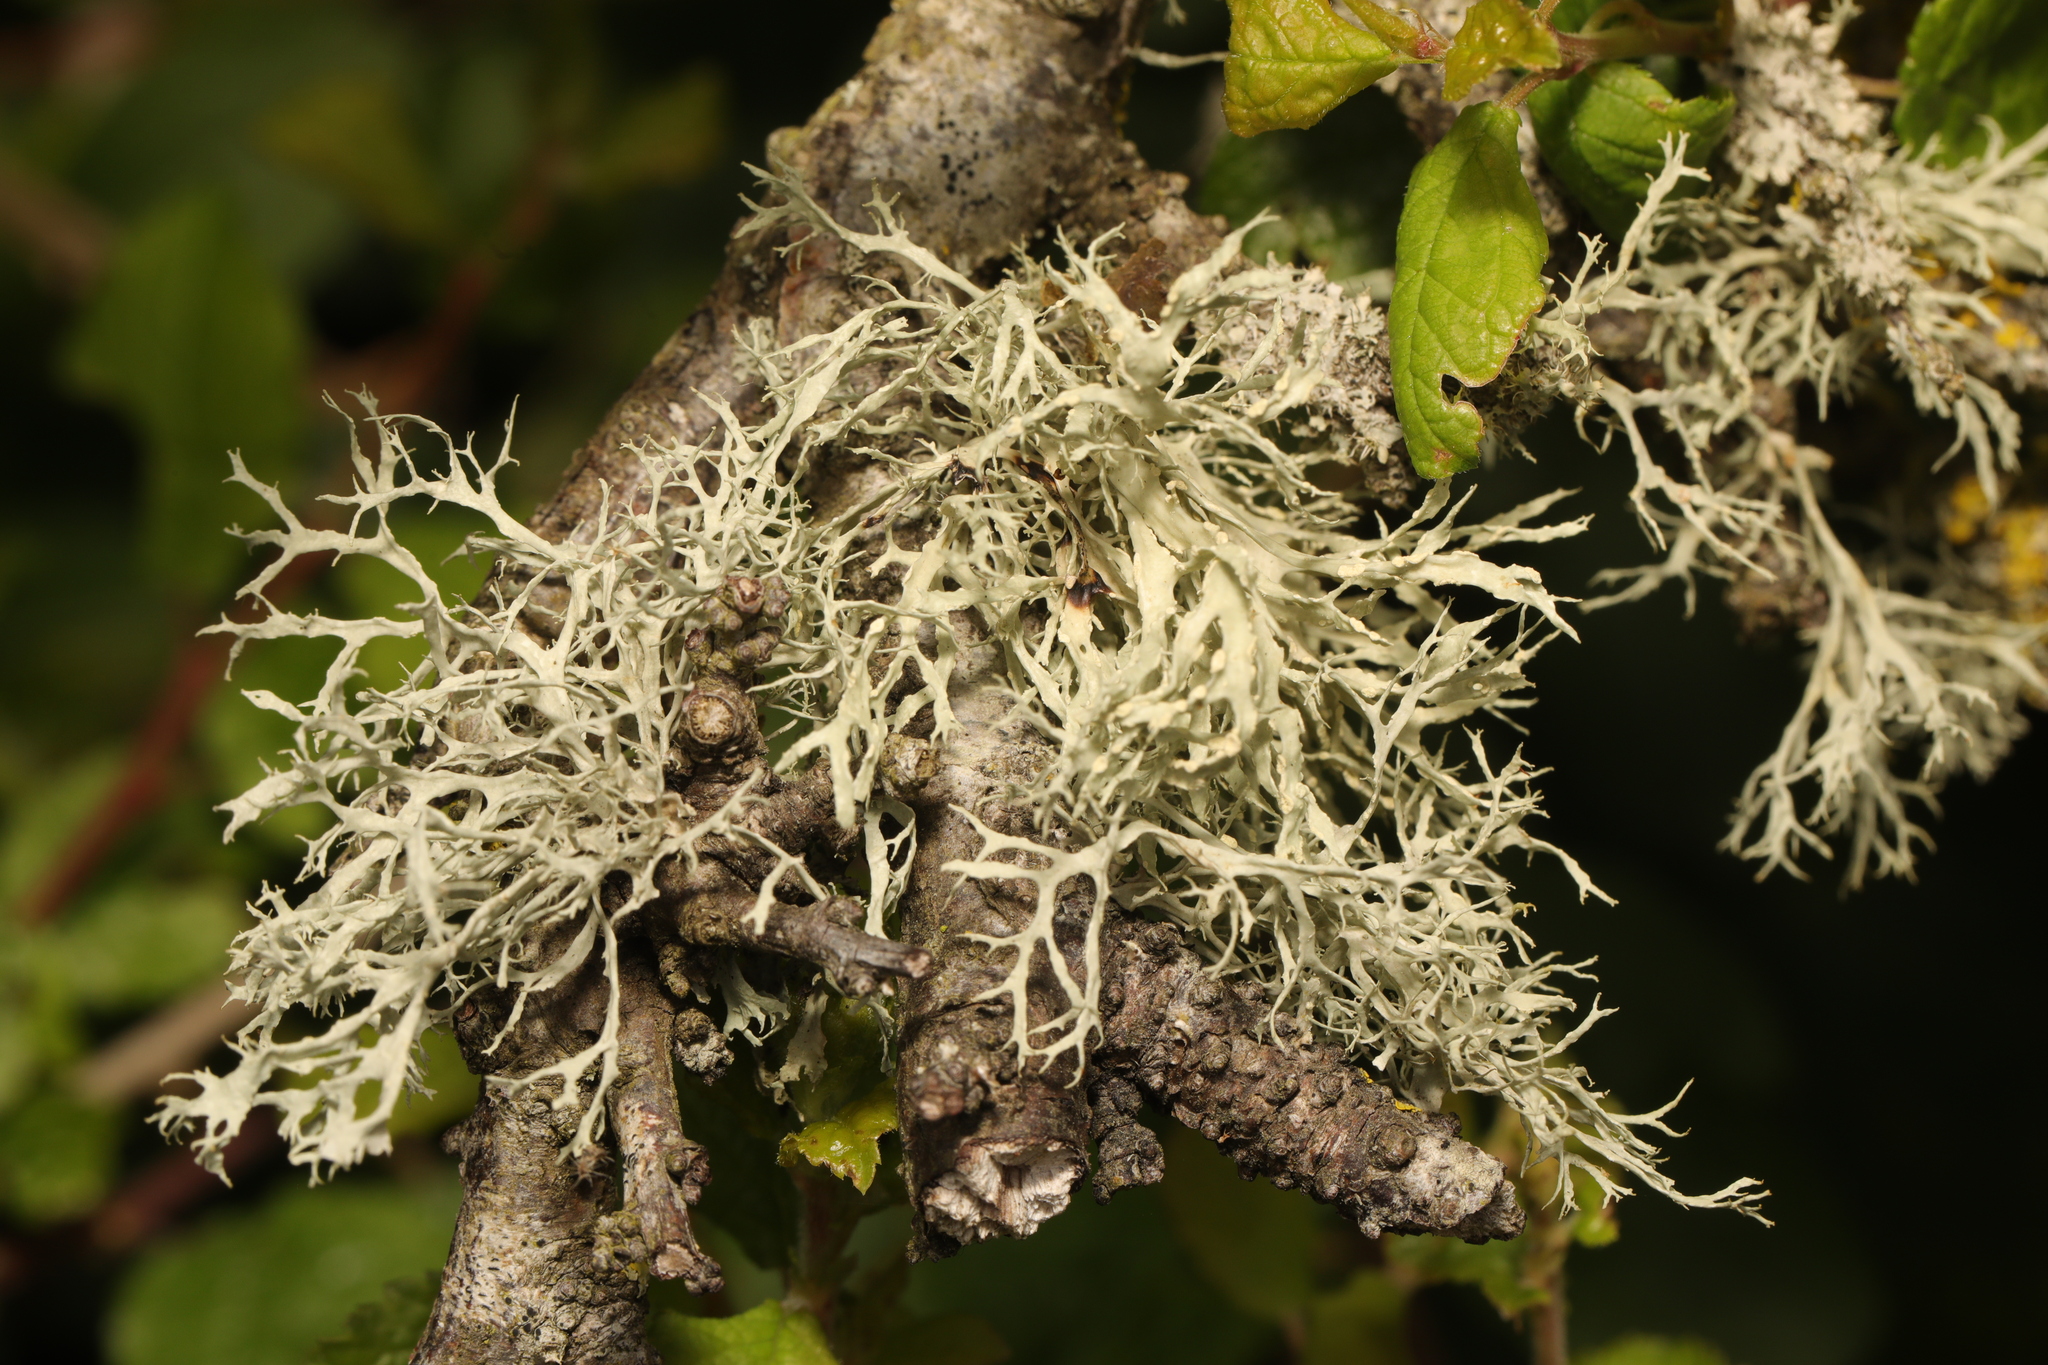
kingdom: Fungi
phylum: Ascomycota
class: Lecanoromycetes
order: Lecanorales
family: Ramalinaceae
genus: Ramalina
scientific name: Ramalina farinacea
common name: Farinose cartilage lichen
